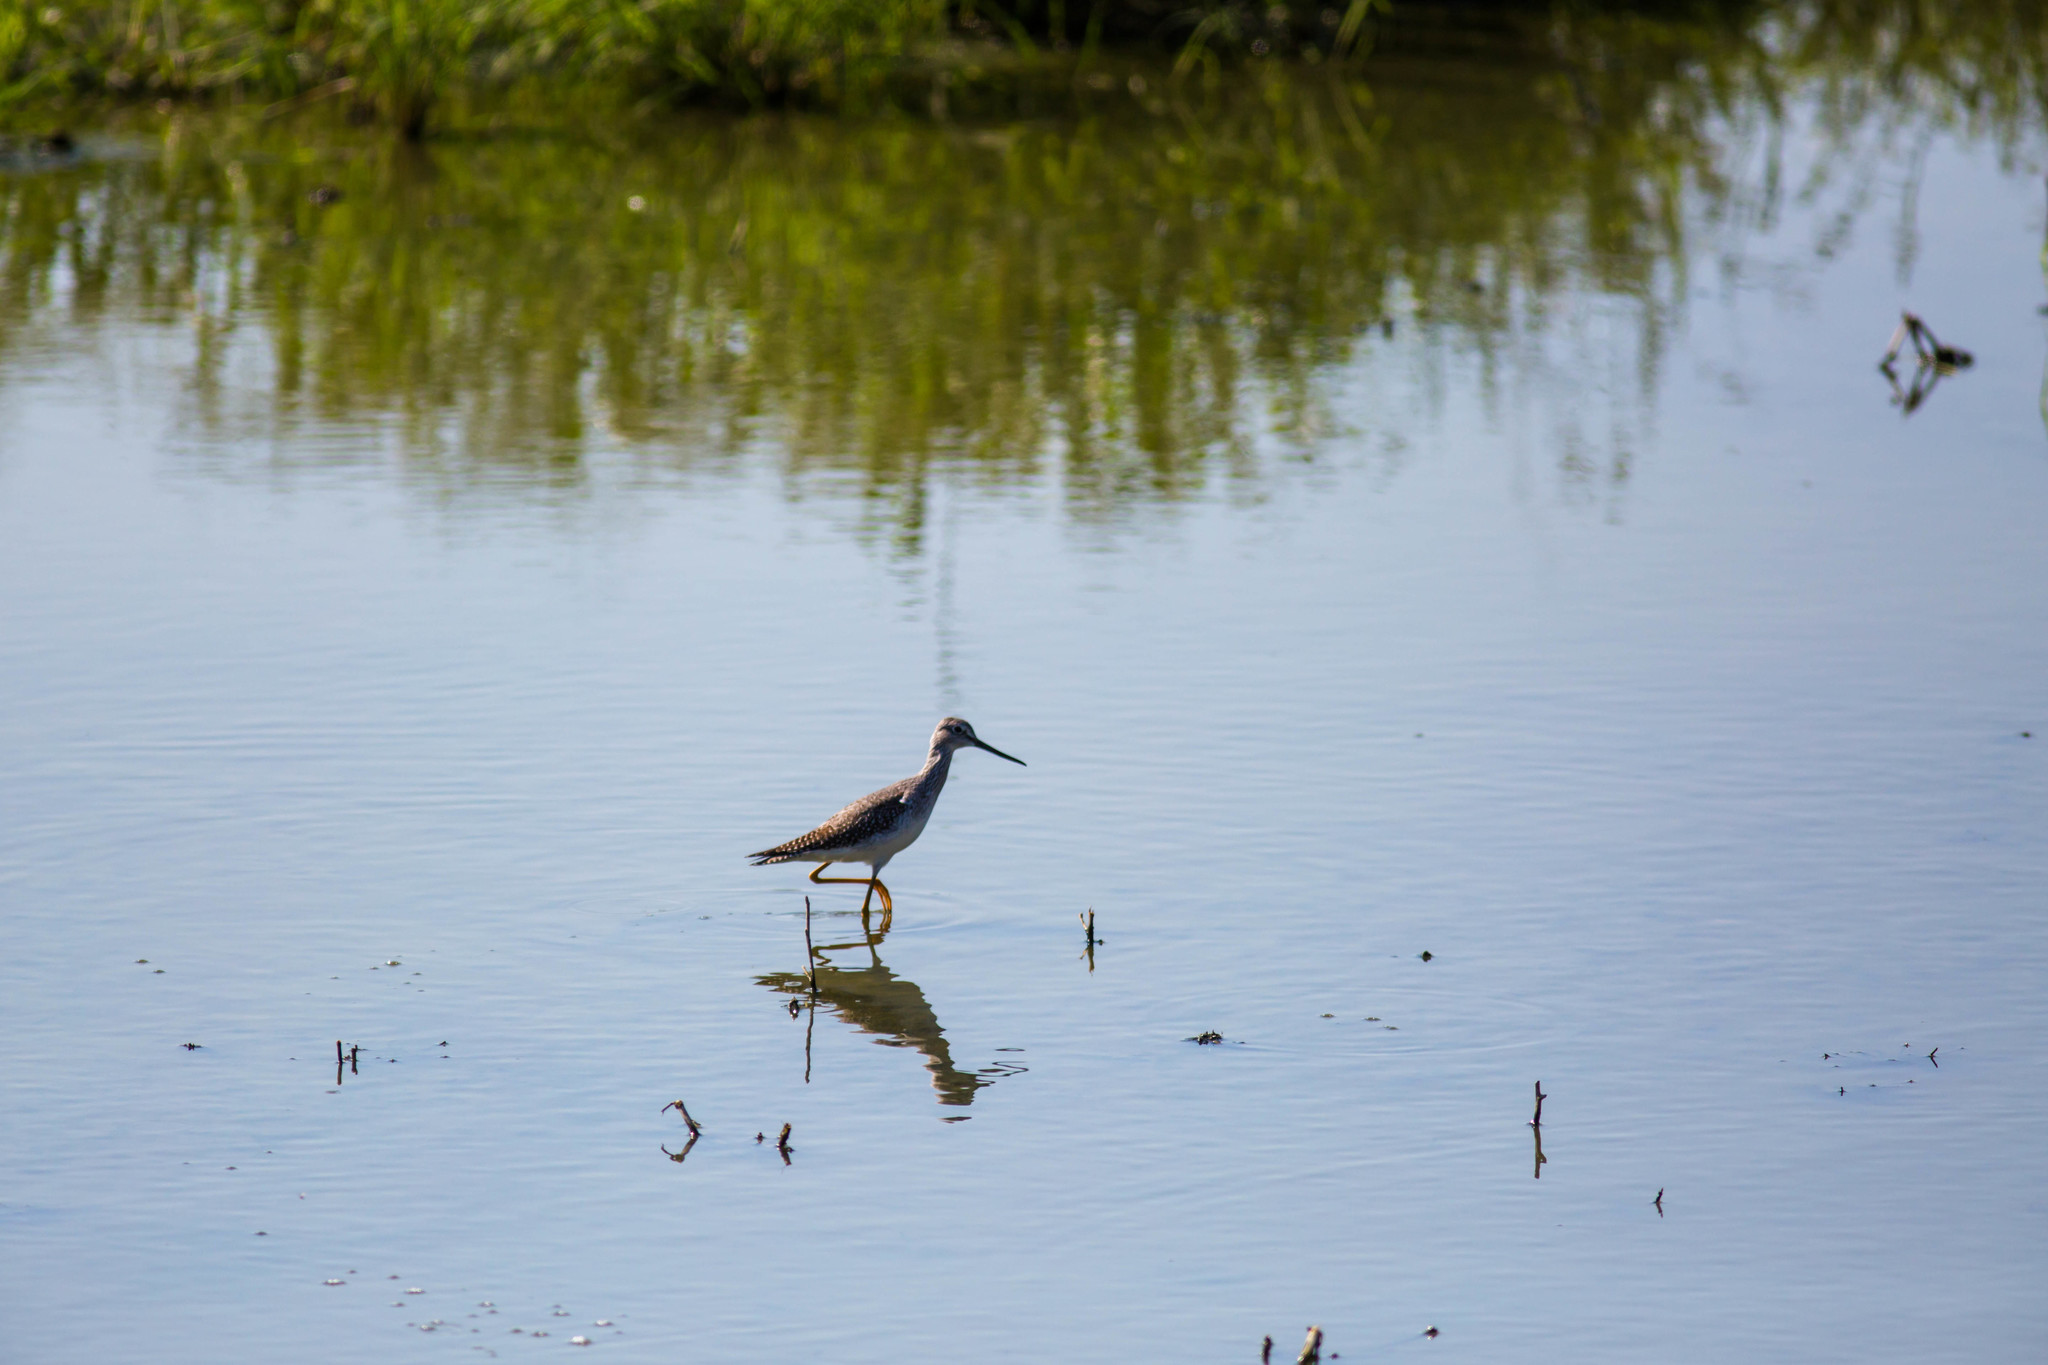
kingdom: Animalia
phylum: Chordata
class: Aves
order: Charadriiformes
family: Scolopacidae
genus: Tringa
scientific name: Tringa melanoleuca
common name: Greater yellowlegs
